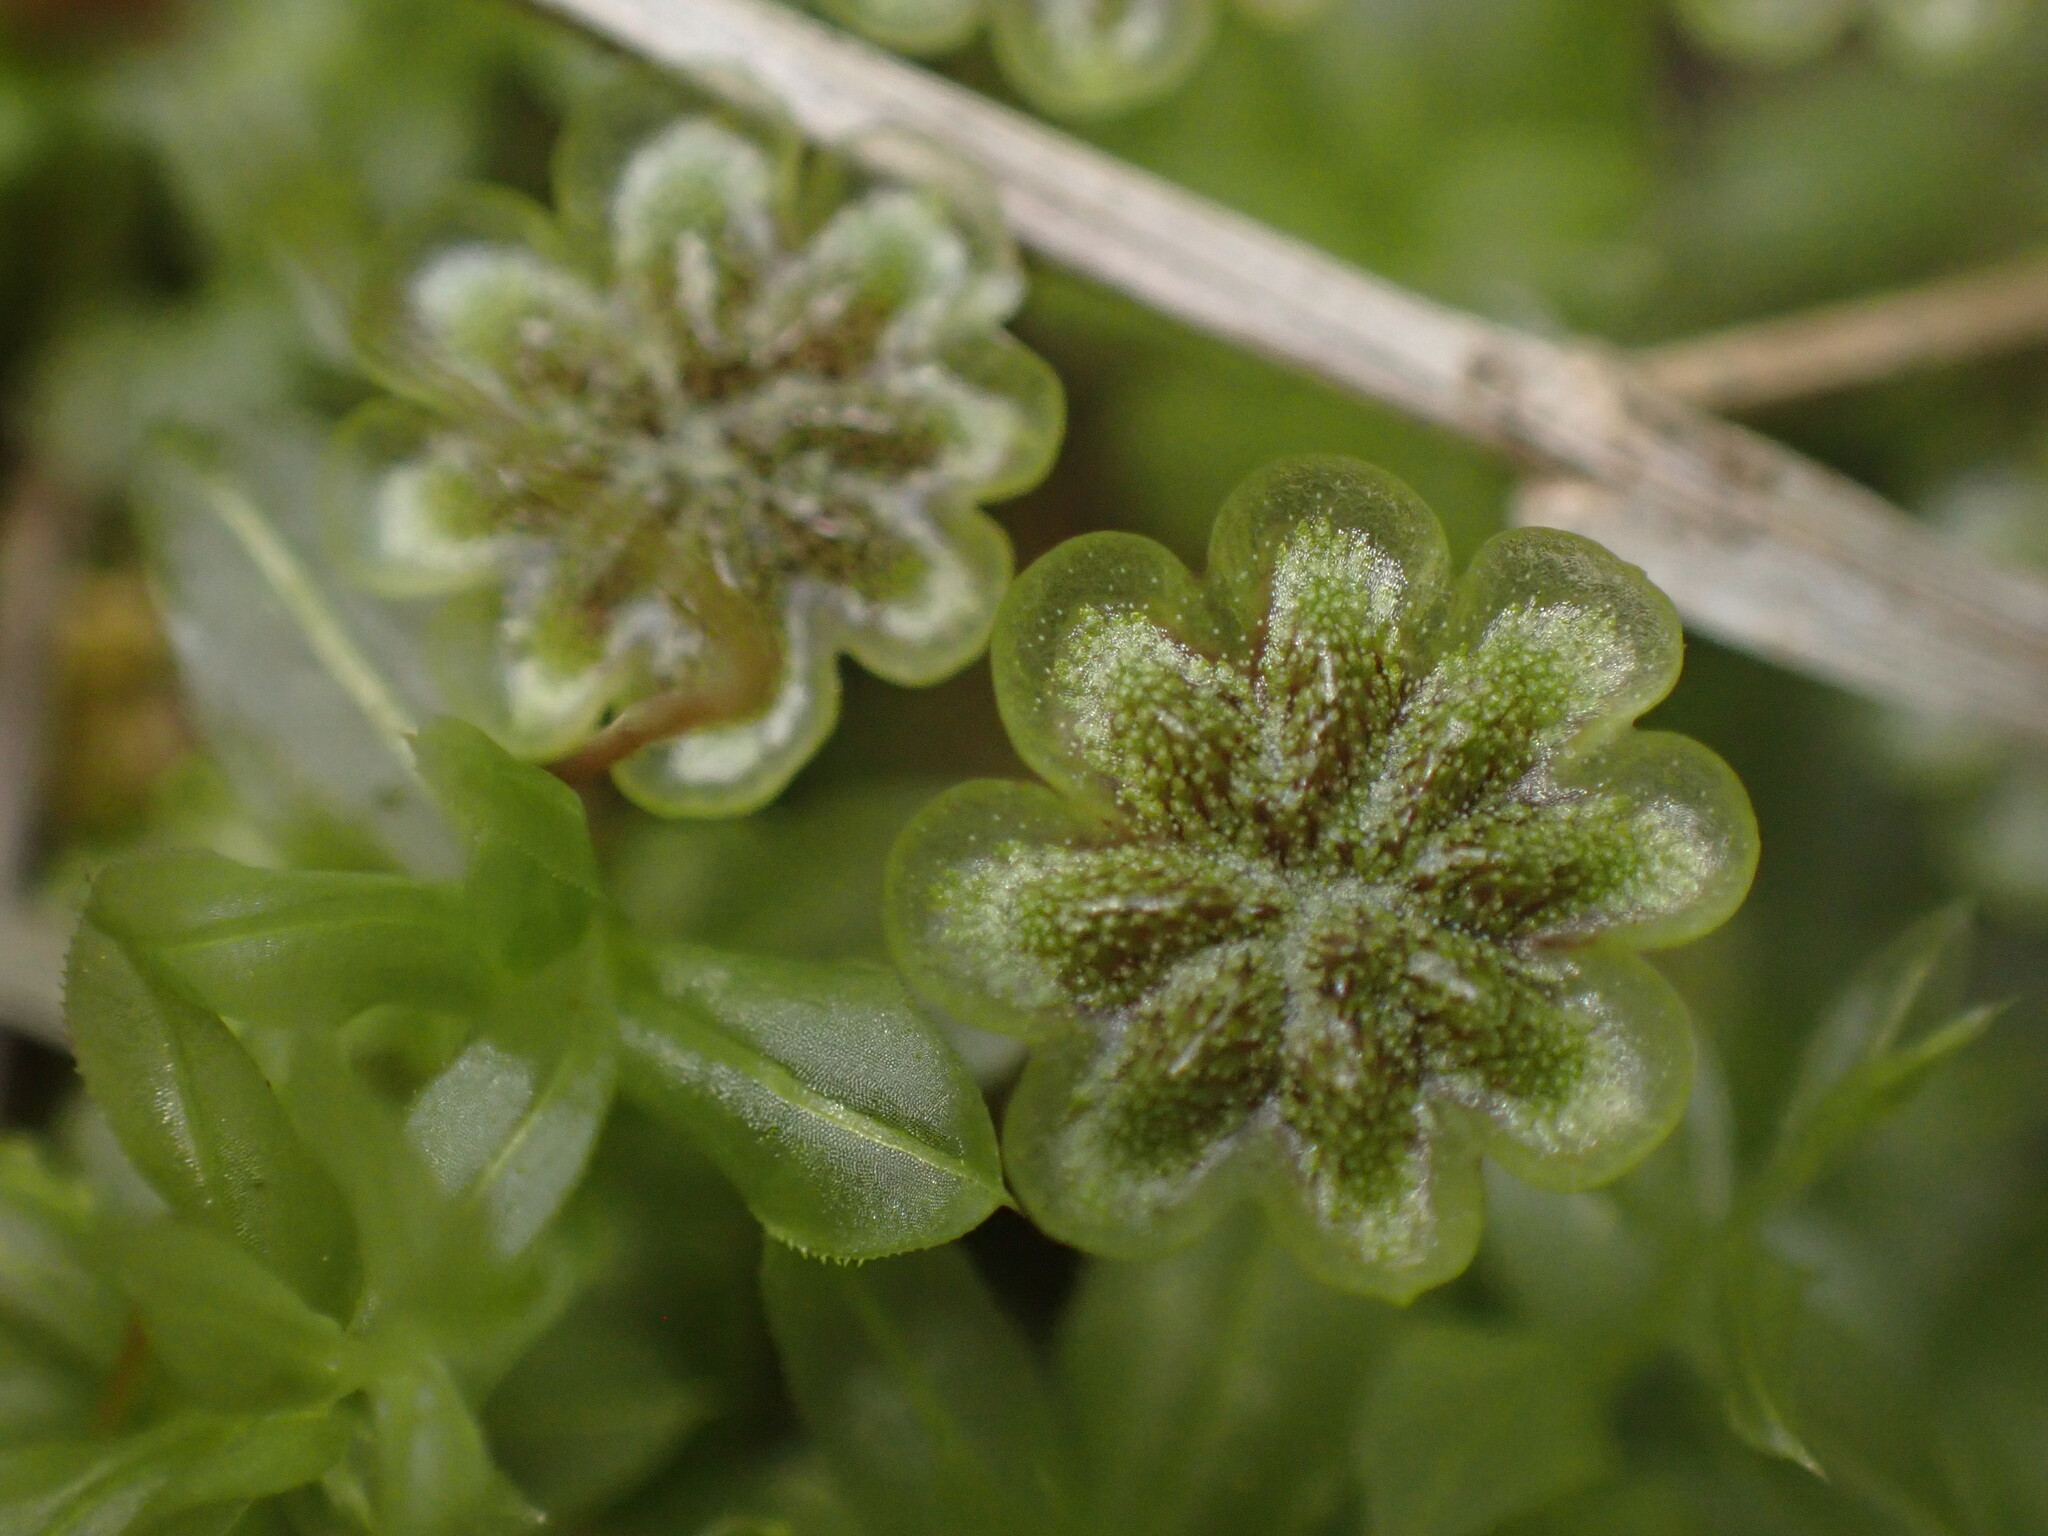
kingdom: Plantae
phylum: Marchantiophyta
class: Marchantiopsida
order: Marchantiales
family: Marchantiaceae
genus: Marchantia
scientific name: Marchantia polymorpha
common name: Common liverwort
